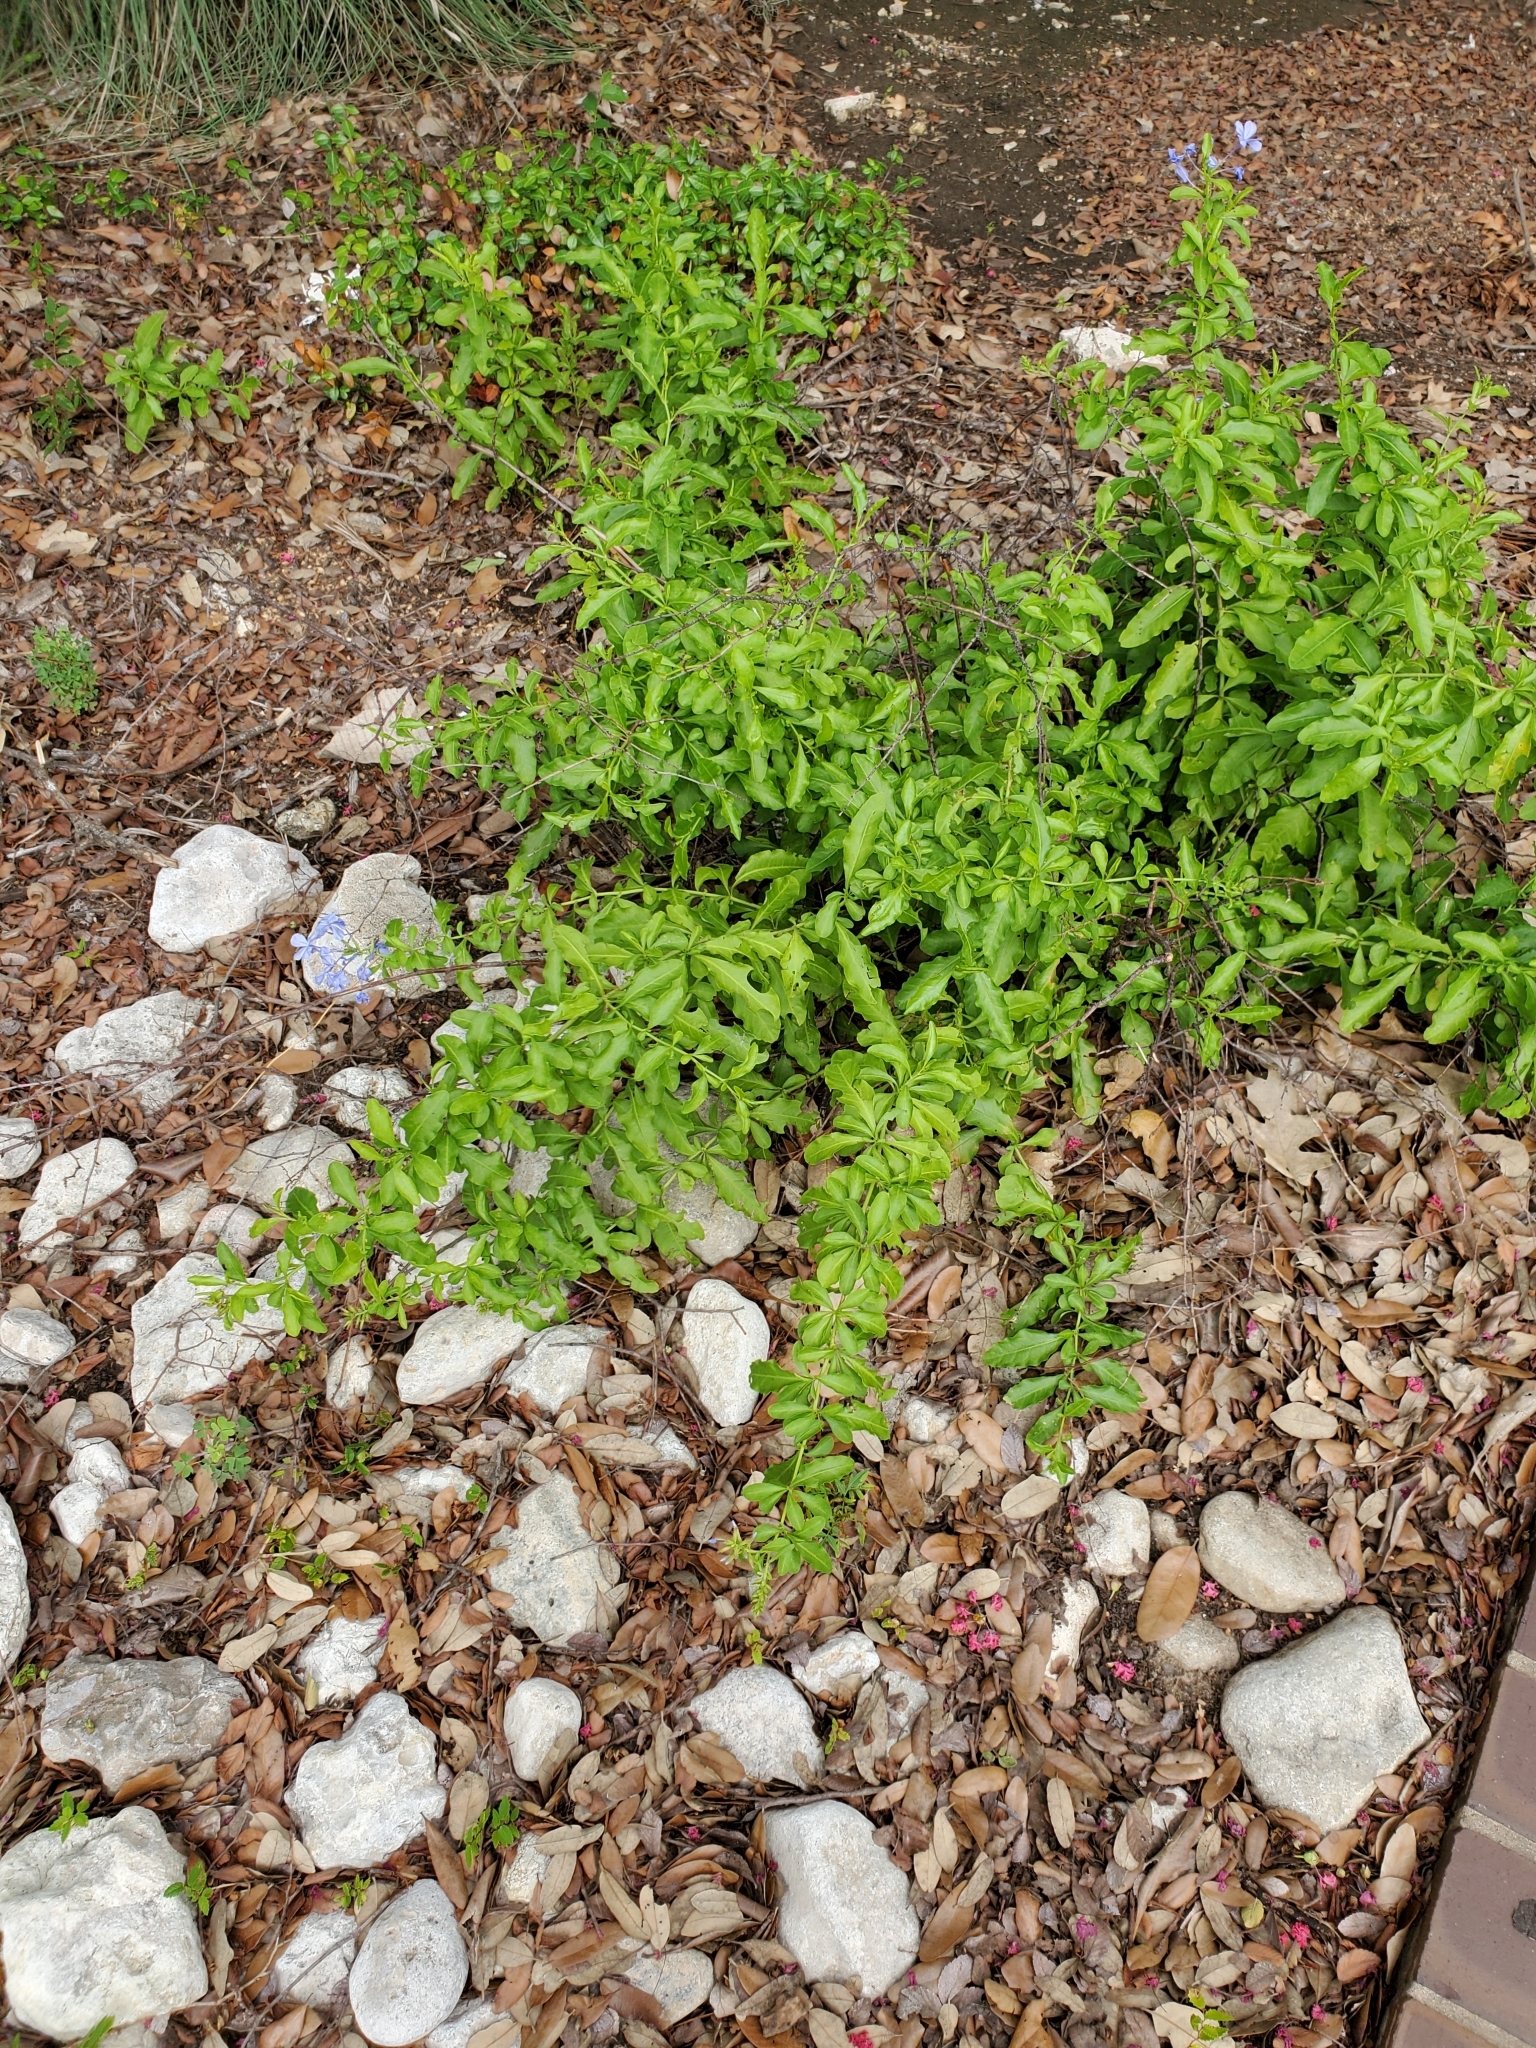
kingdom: Plantae
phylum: Tracheophyta
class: Magnoliopsida
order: Caryophyllales
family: Plumbaginaceae
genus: Plumbago
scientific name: Plumbago auriculata
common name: Cape leadwort
